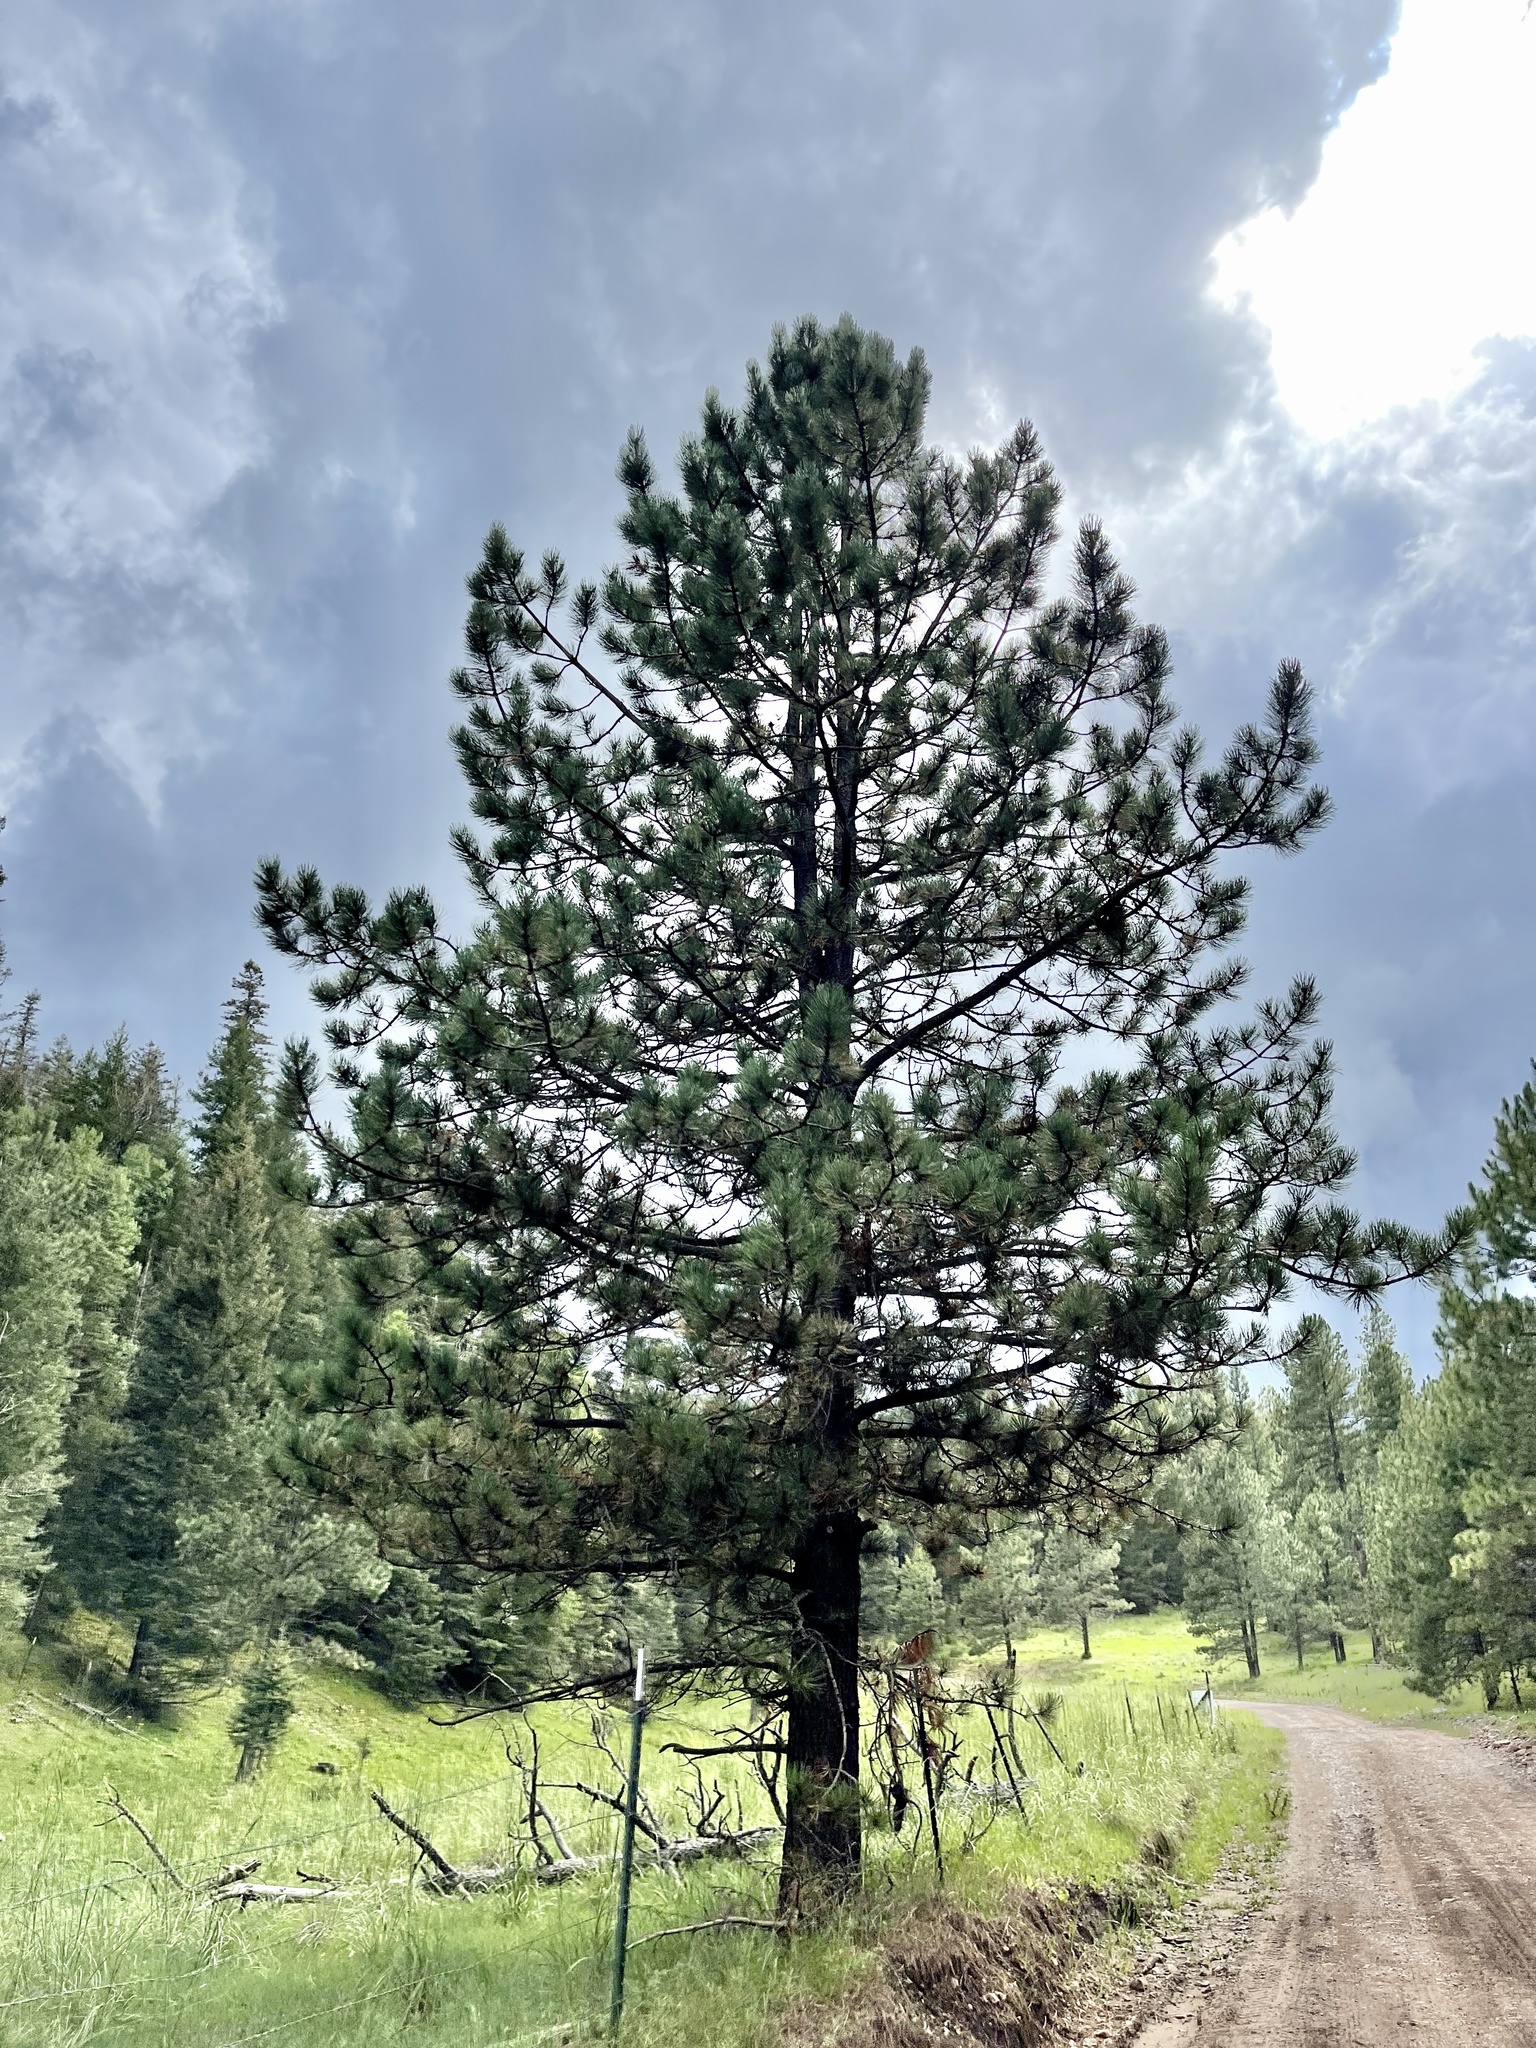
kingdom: Plantae
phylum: Tracheophyta
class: Pinopsida
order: Pinales
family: Pinaceae
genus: Pinus
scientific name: Pinus ponderosa
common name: Western yellow-pine
